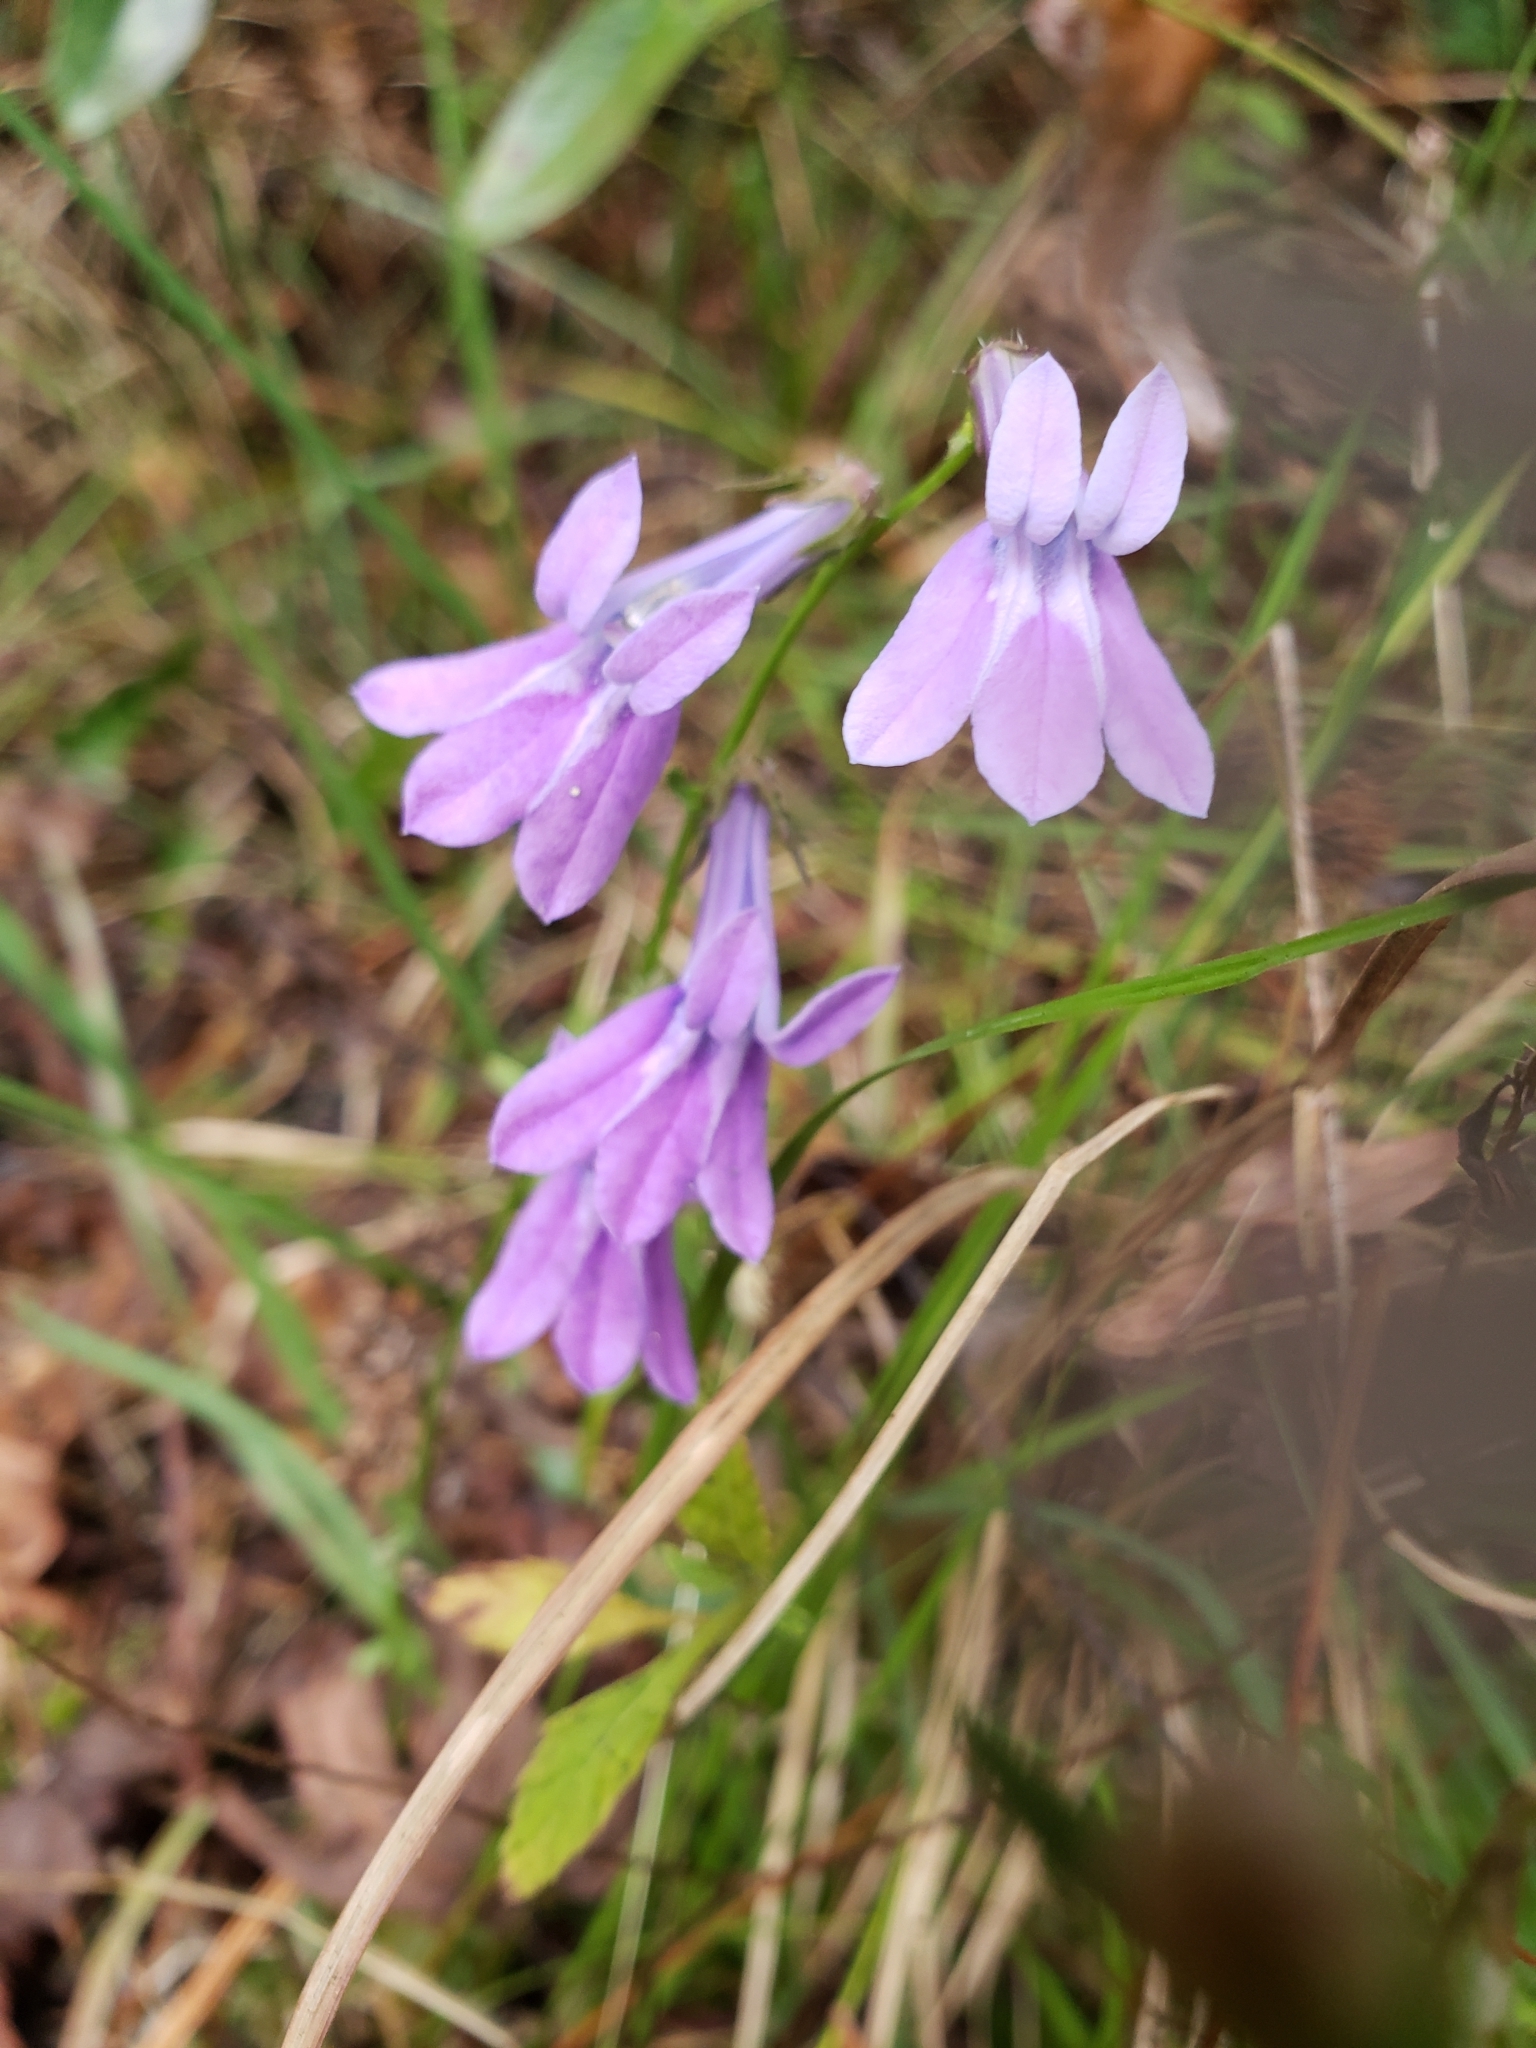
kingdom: Plantae
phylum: Tracheophyta
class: Magnoliopsida
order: Asterales
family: Campanulaceae
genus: Lobelia
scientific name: Lobelia glandulosa
